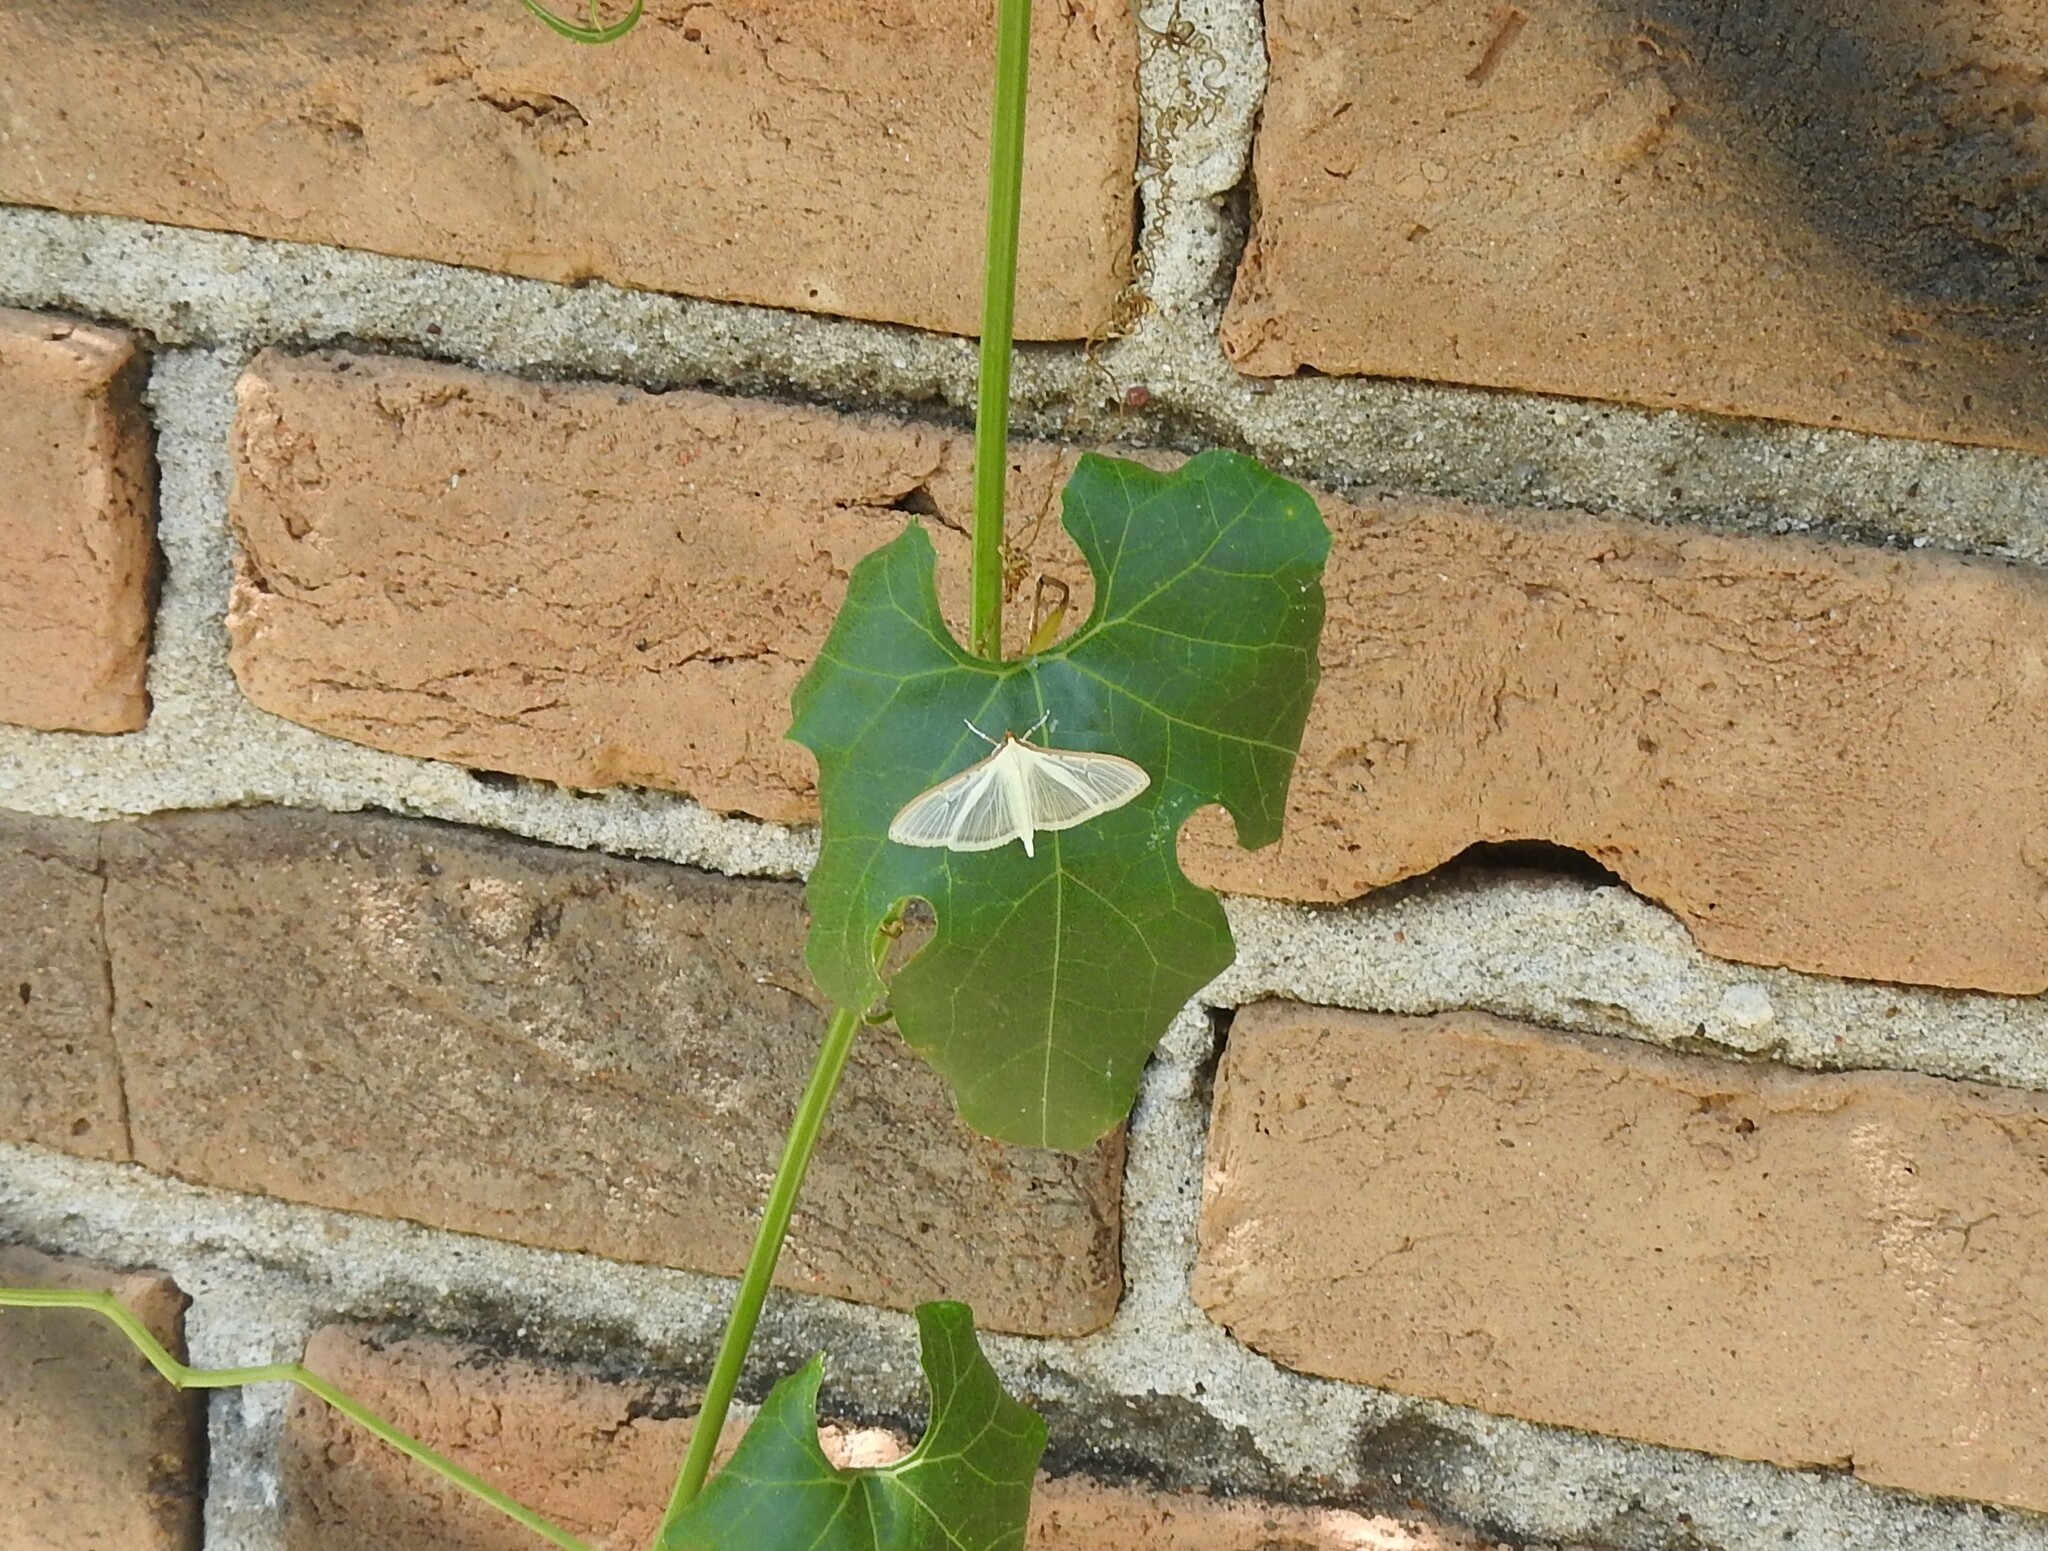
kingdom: Animalia
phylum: Arthropoda
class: Insecta
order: Lepidoptera
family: Crambidae
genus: Palpita
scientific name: Palpita quadristigmalis
